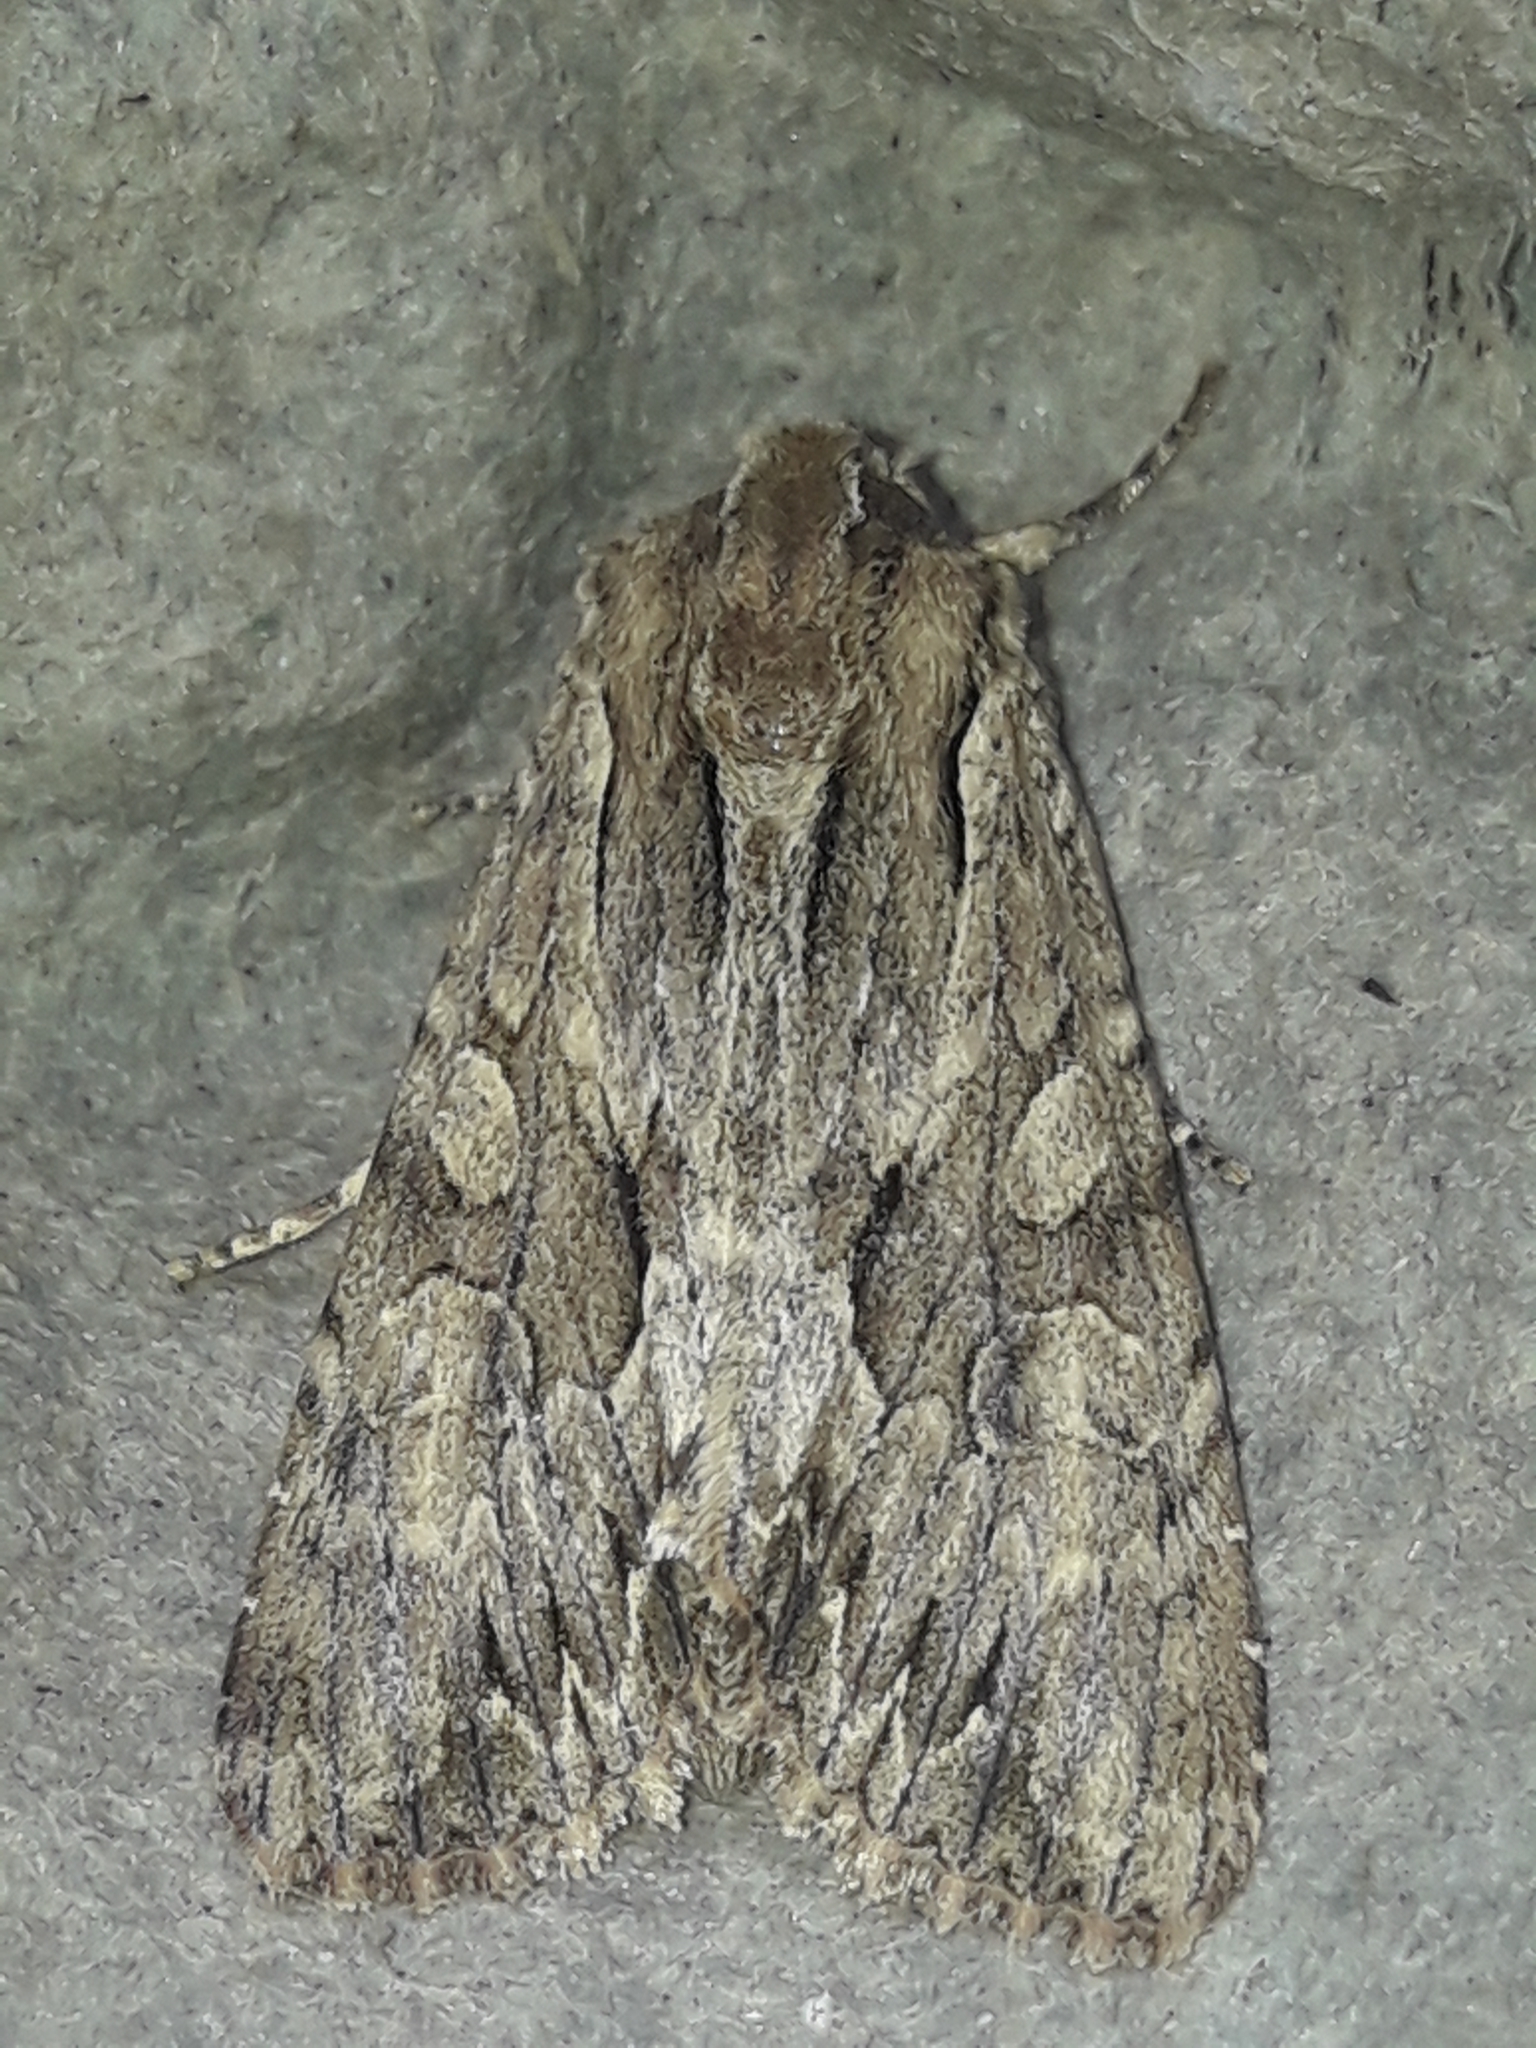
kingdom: Animalia
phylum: Arthropoda
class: Insecta
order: Lepidoptera
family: Noctuidae
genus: Apamea
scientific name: Apamea monoglypha
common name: Dark arches
